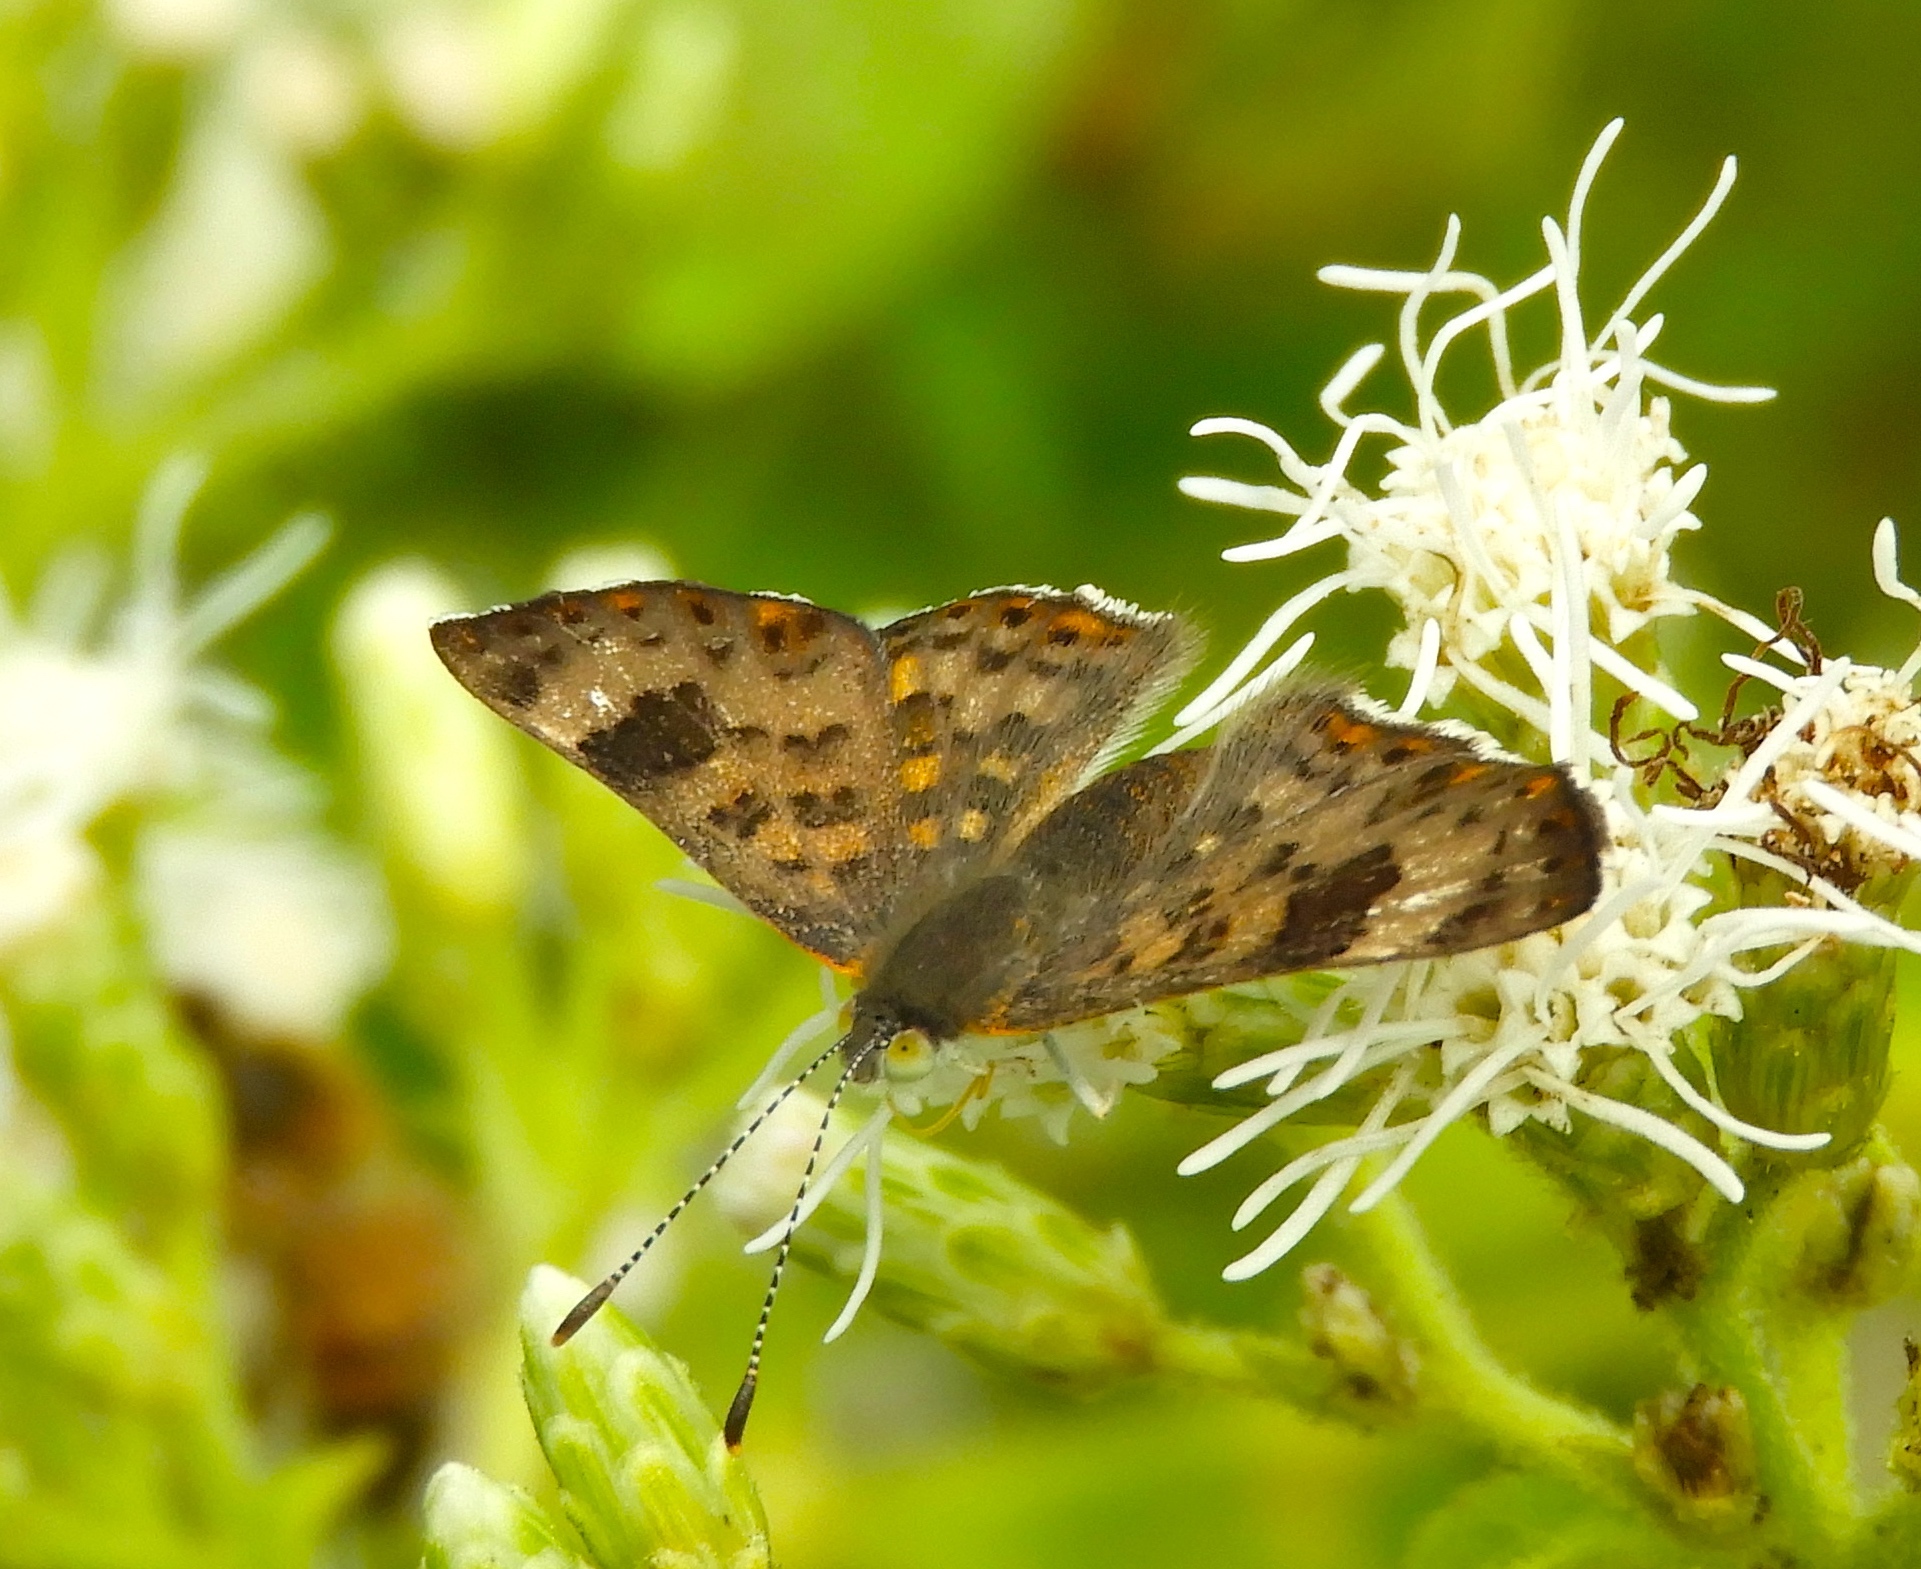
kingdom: Animalia
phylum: Arthropoda
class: Insecta
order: Lepidoptera
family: Riodinidae
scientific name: Riodinidae
